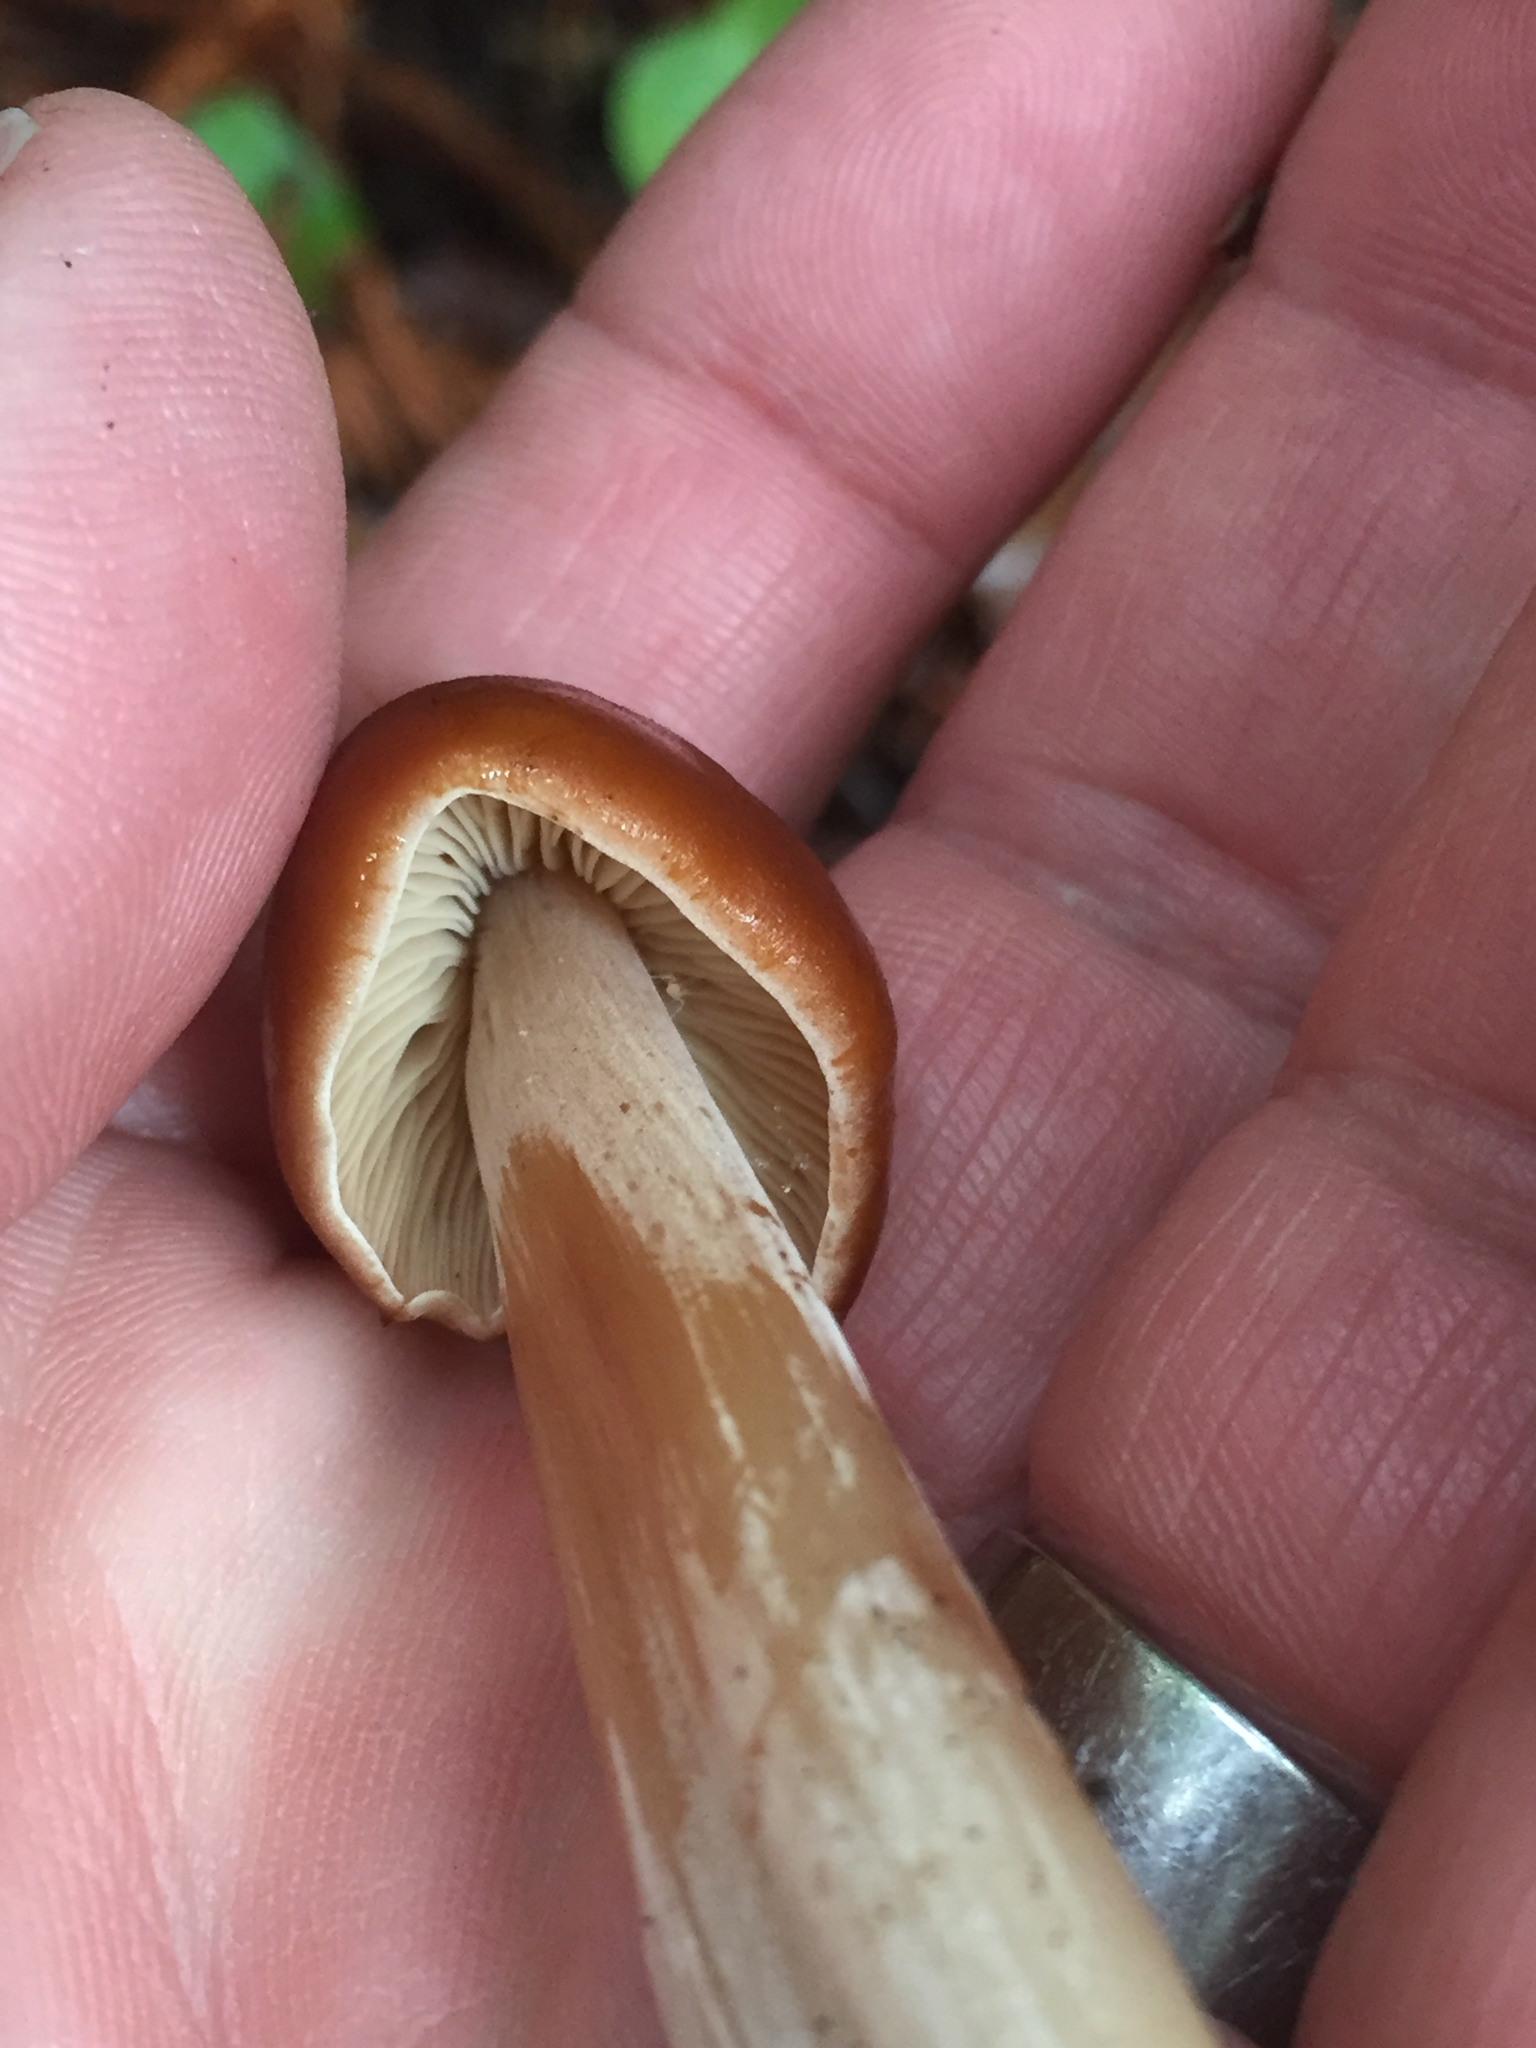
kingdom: Fungi
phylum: Basidiomycota
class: Agaricomycetes
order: Agaricales
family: Tricholomataceae
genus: Caulorhiza
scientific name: Caulorhiza umbonata
